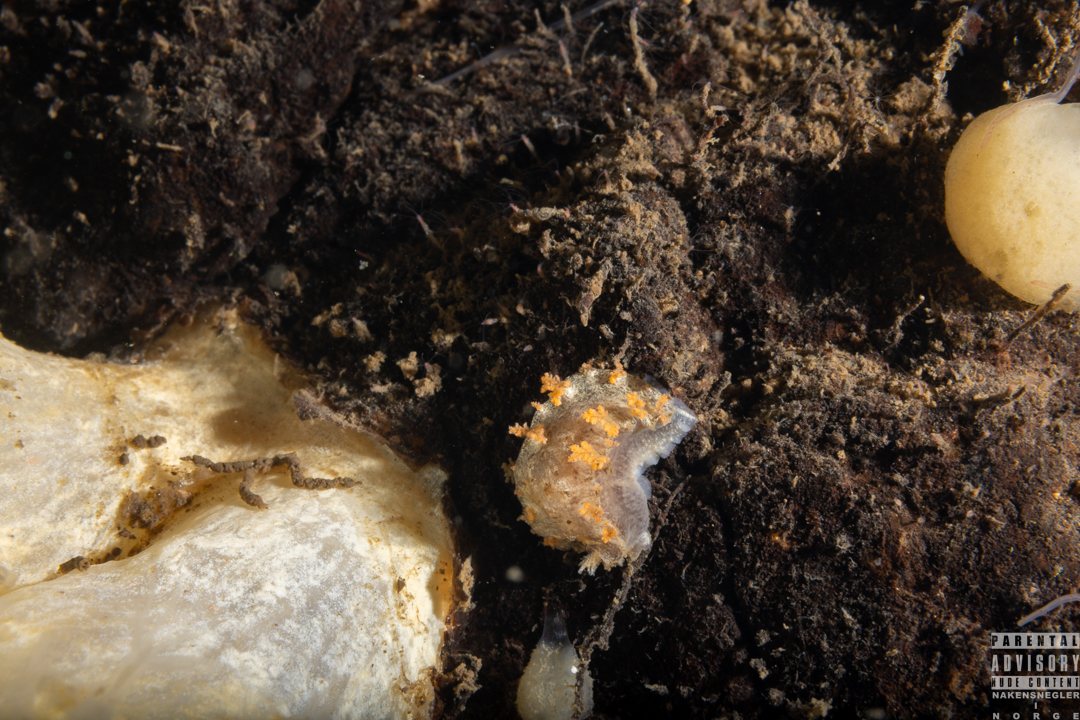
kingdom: Animalia
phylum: Mollusca
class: Gastropoda
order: Nudibranchia
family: Tritoniidae
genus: Duvaucelia
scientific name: Duvaucelia plebeia
